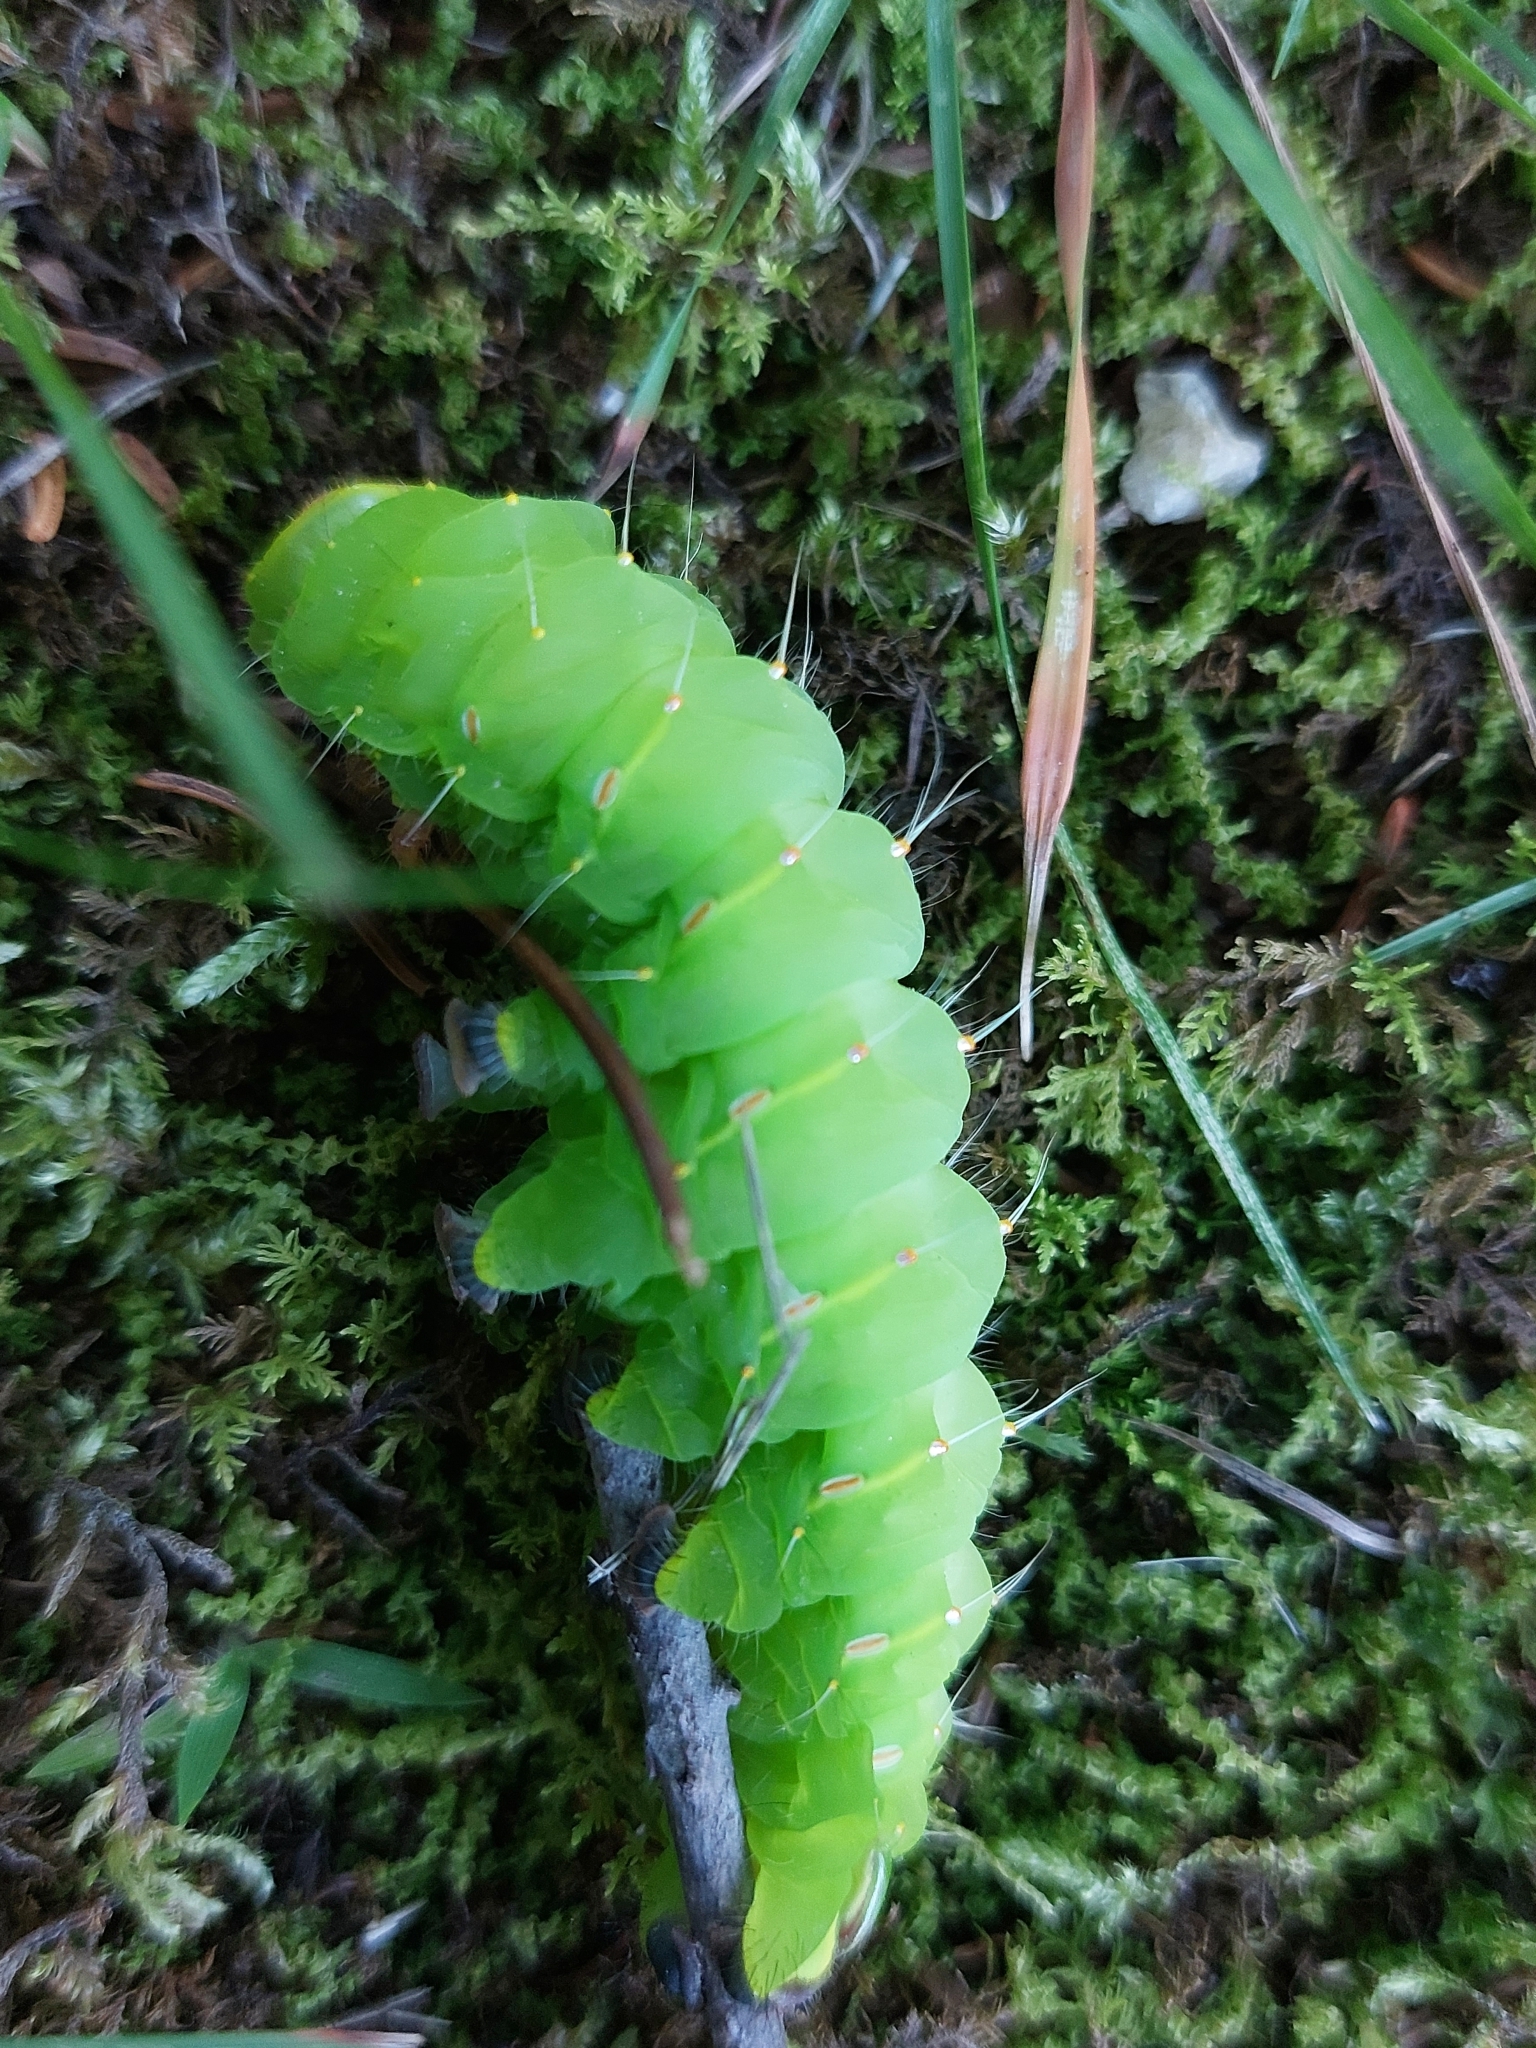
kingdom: Animalia
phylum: Arthropoda
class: Insecta
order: Lepidoptera
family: Saturniidae
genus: Antheraea
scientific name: Antheraea polyphemus
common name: Polyphemus moth
